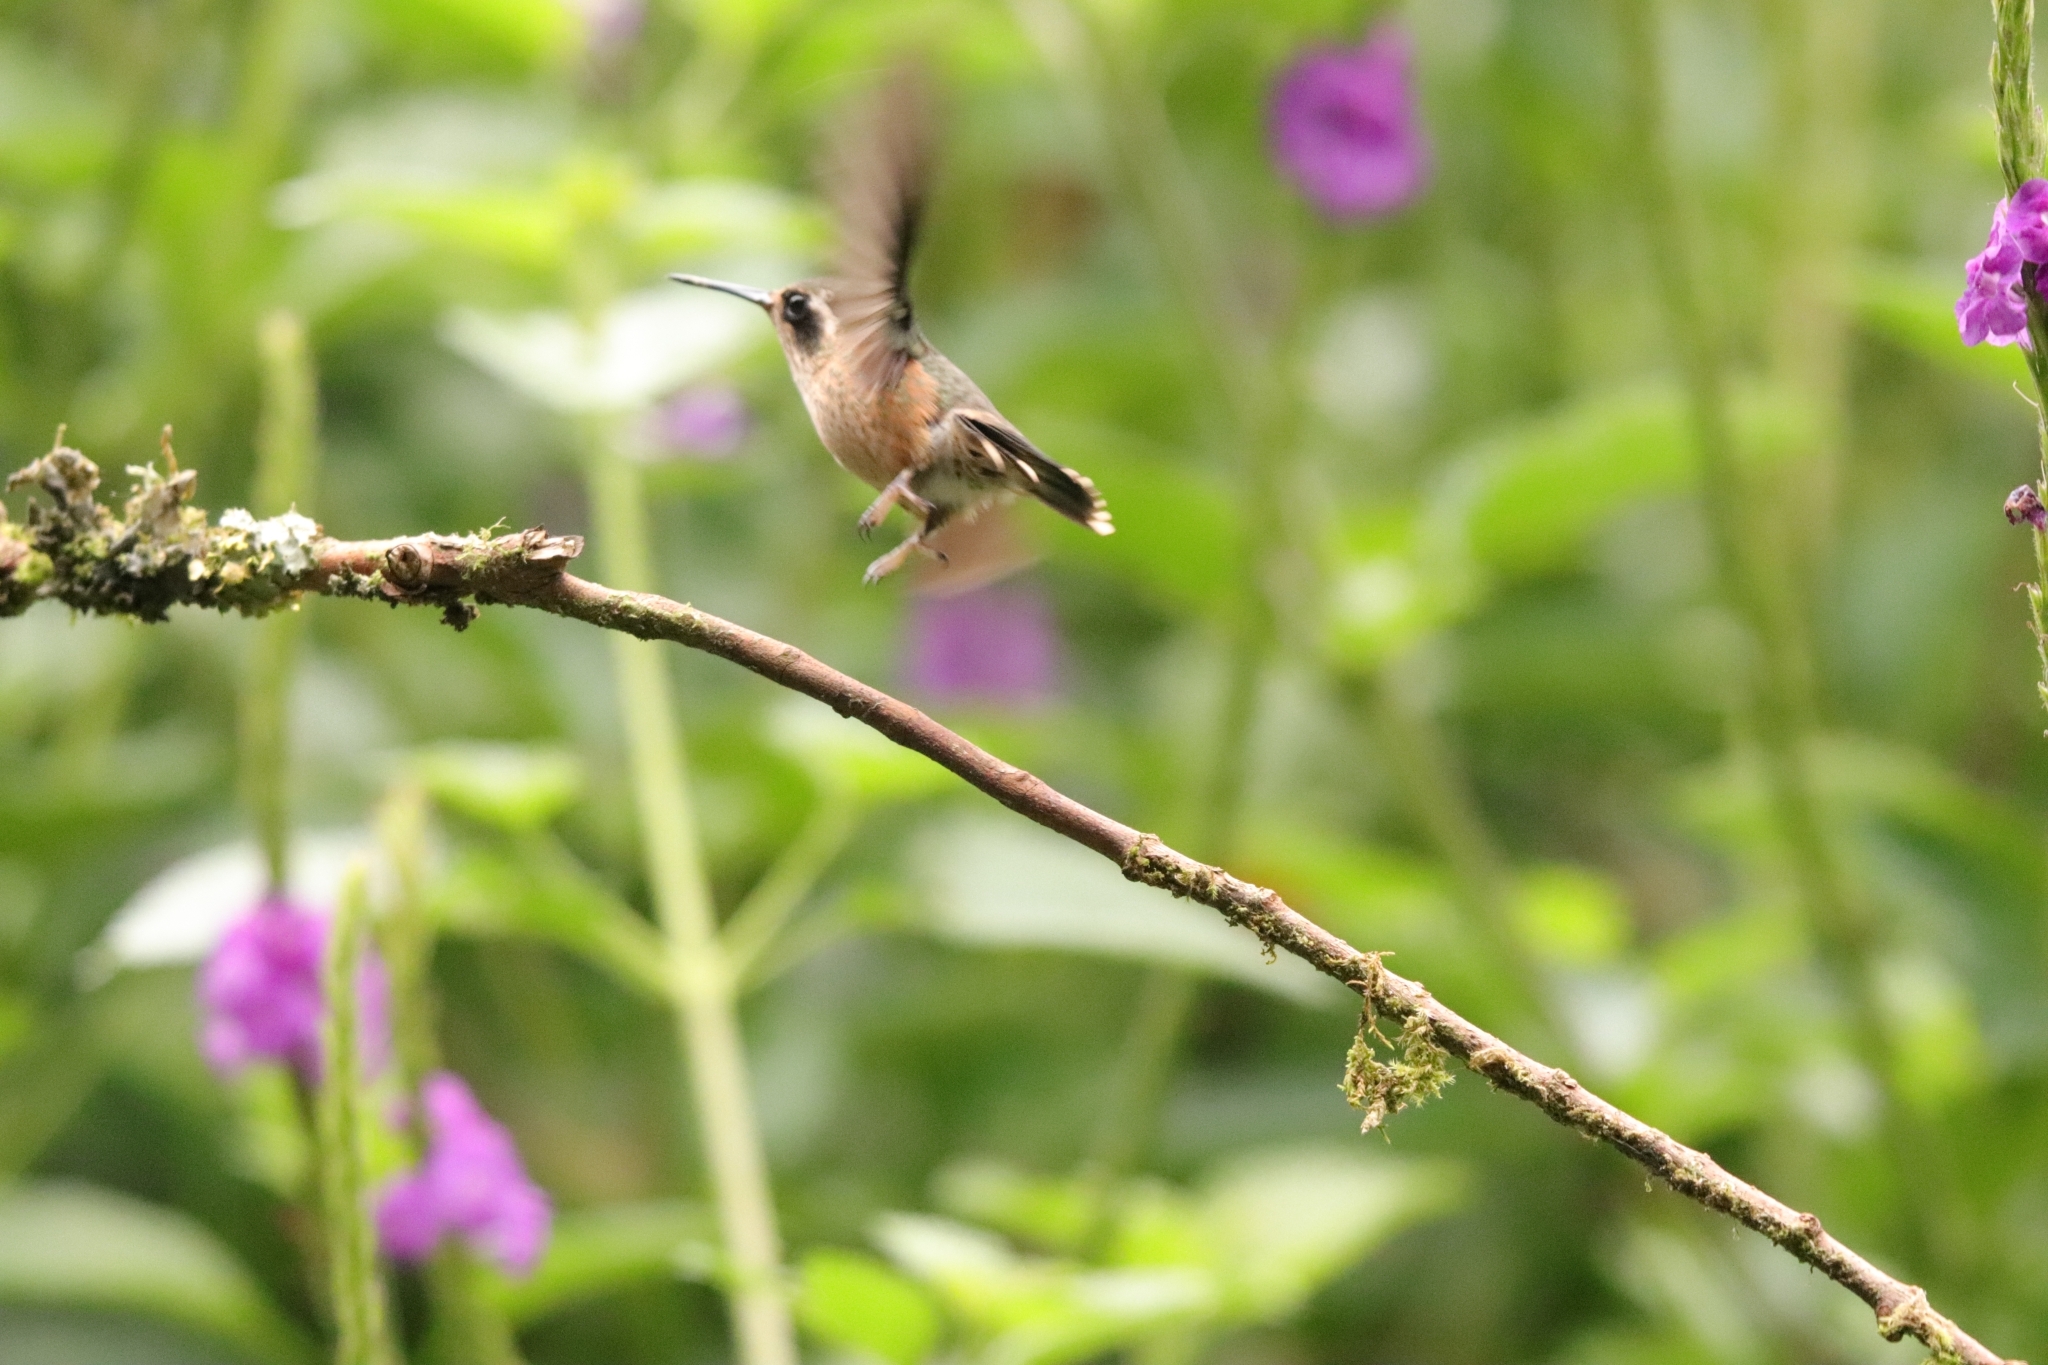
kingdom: Animalia
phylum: Chordata
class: Aves
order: Apodiformes
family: Trochilidae
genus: Adelomyia
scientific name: Adelomyia melanogenys
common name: Speckled hummingbird
